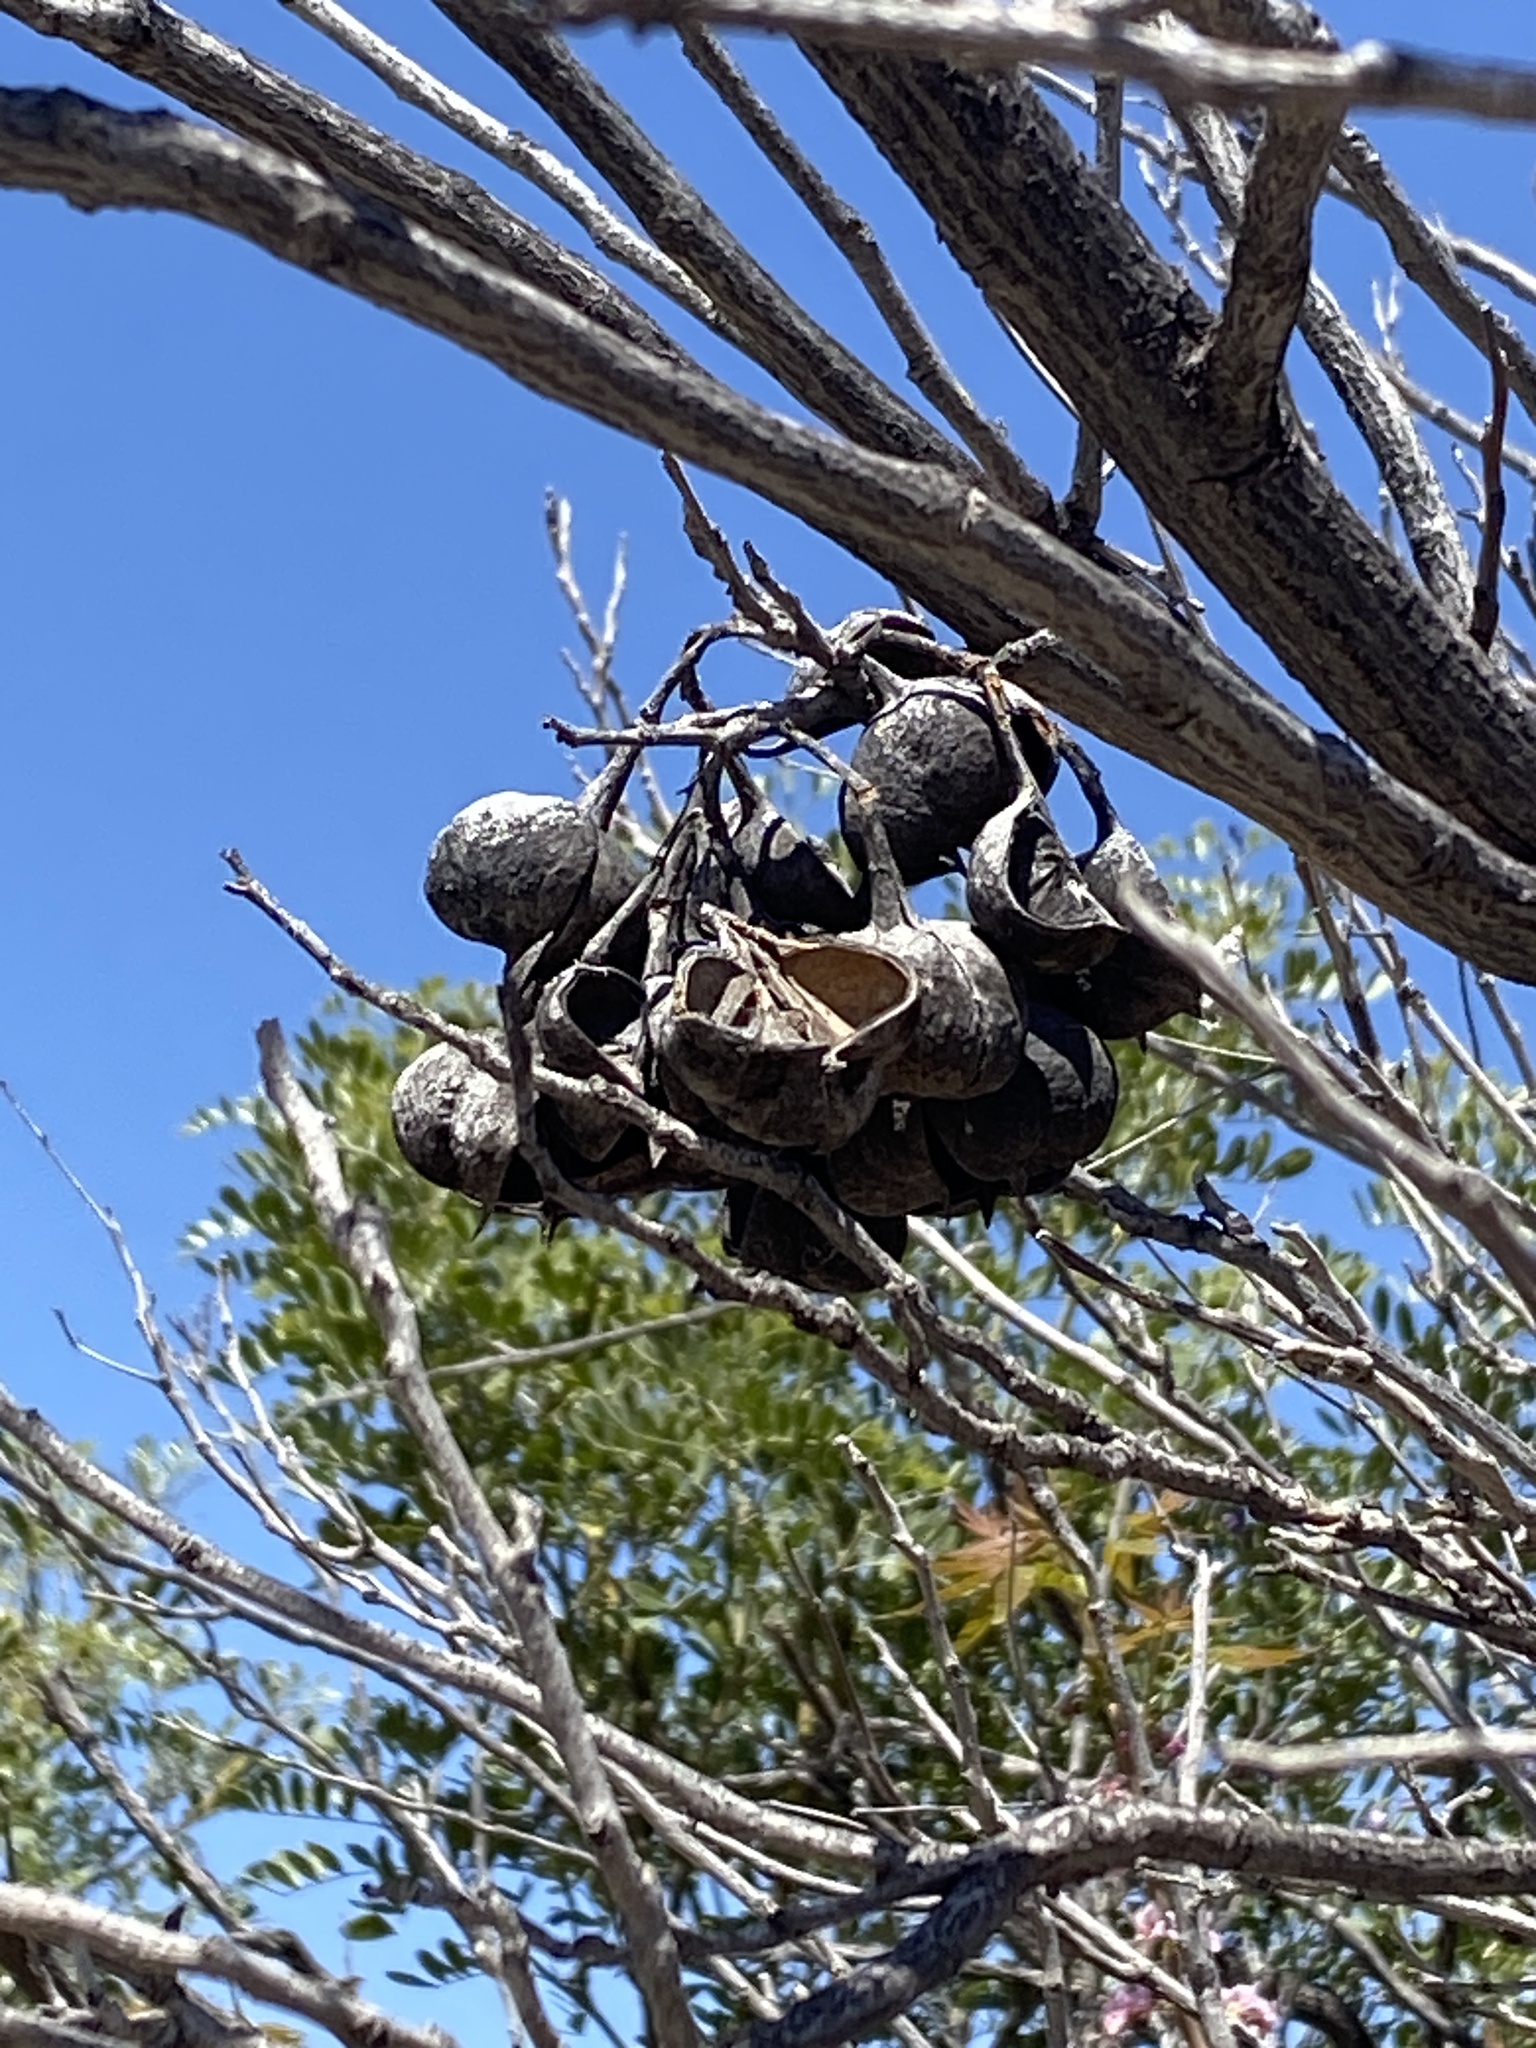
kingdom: Plantae
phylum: Tracheophyta
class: Magnoliopsida
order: Sapindales
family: Sapindaceae
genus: Ungnadia
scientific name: Ungnadia speciosa
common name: Texas-buckeye
